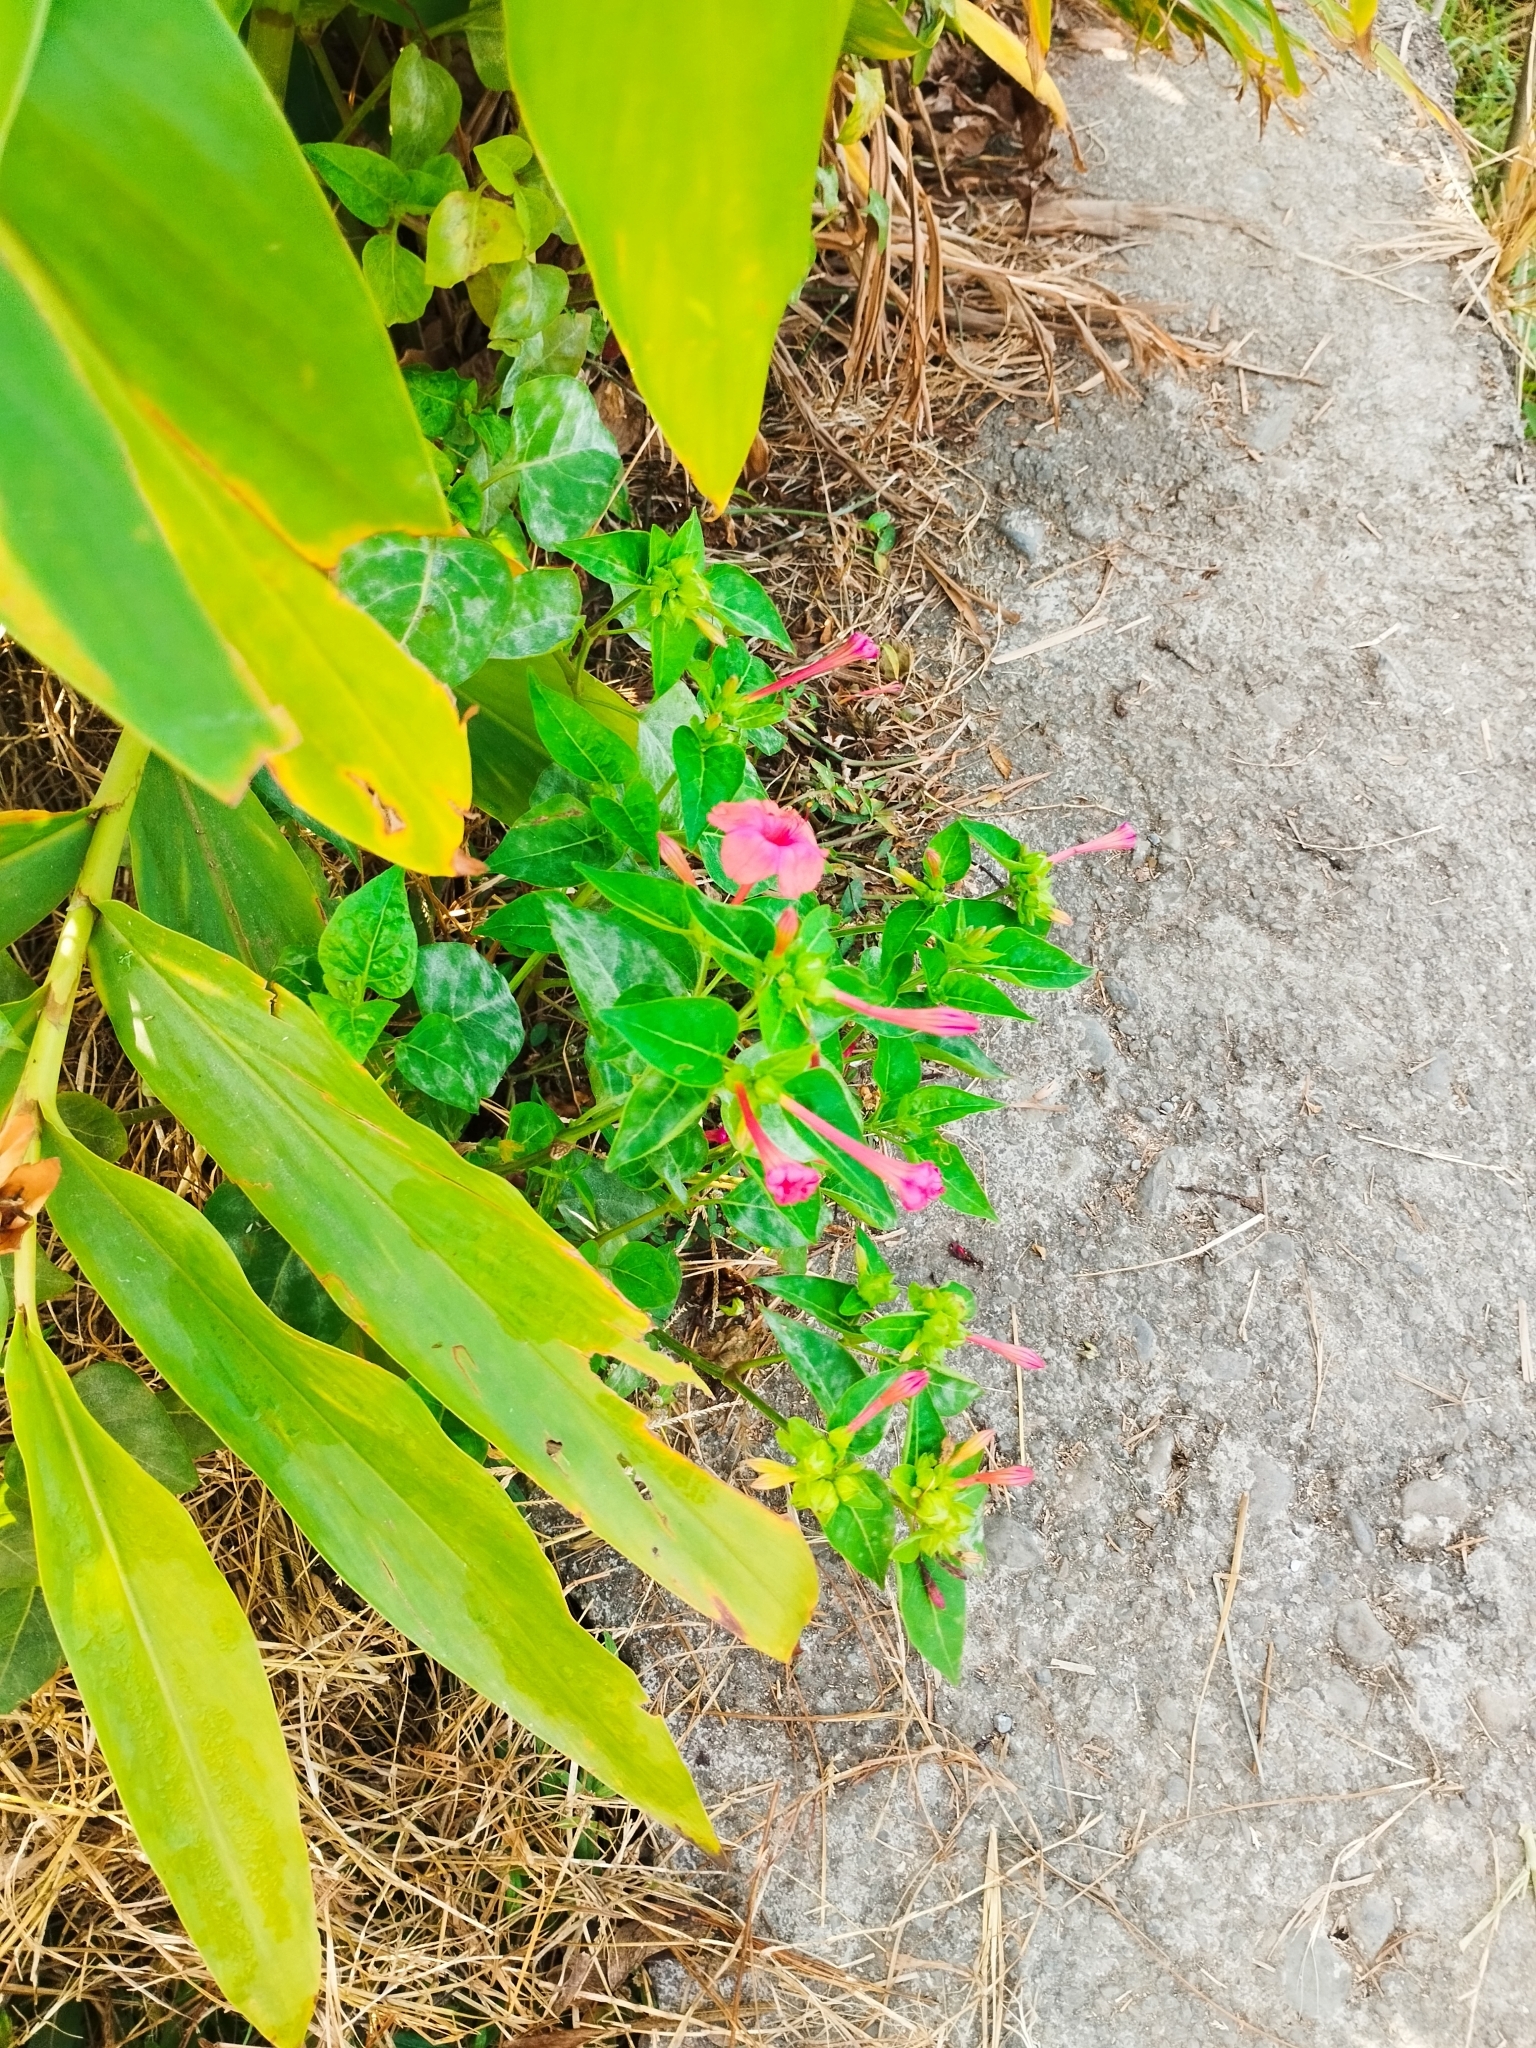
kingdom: Plantae
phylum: Tracheophyta
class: Magnoliopsida
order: Caryophyllales
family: Nyctaginaceae
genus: Mirabilis
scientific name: Mirabilis jalapa
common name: Marvel-of-peru
